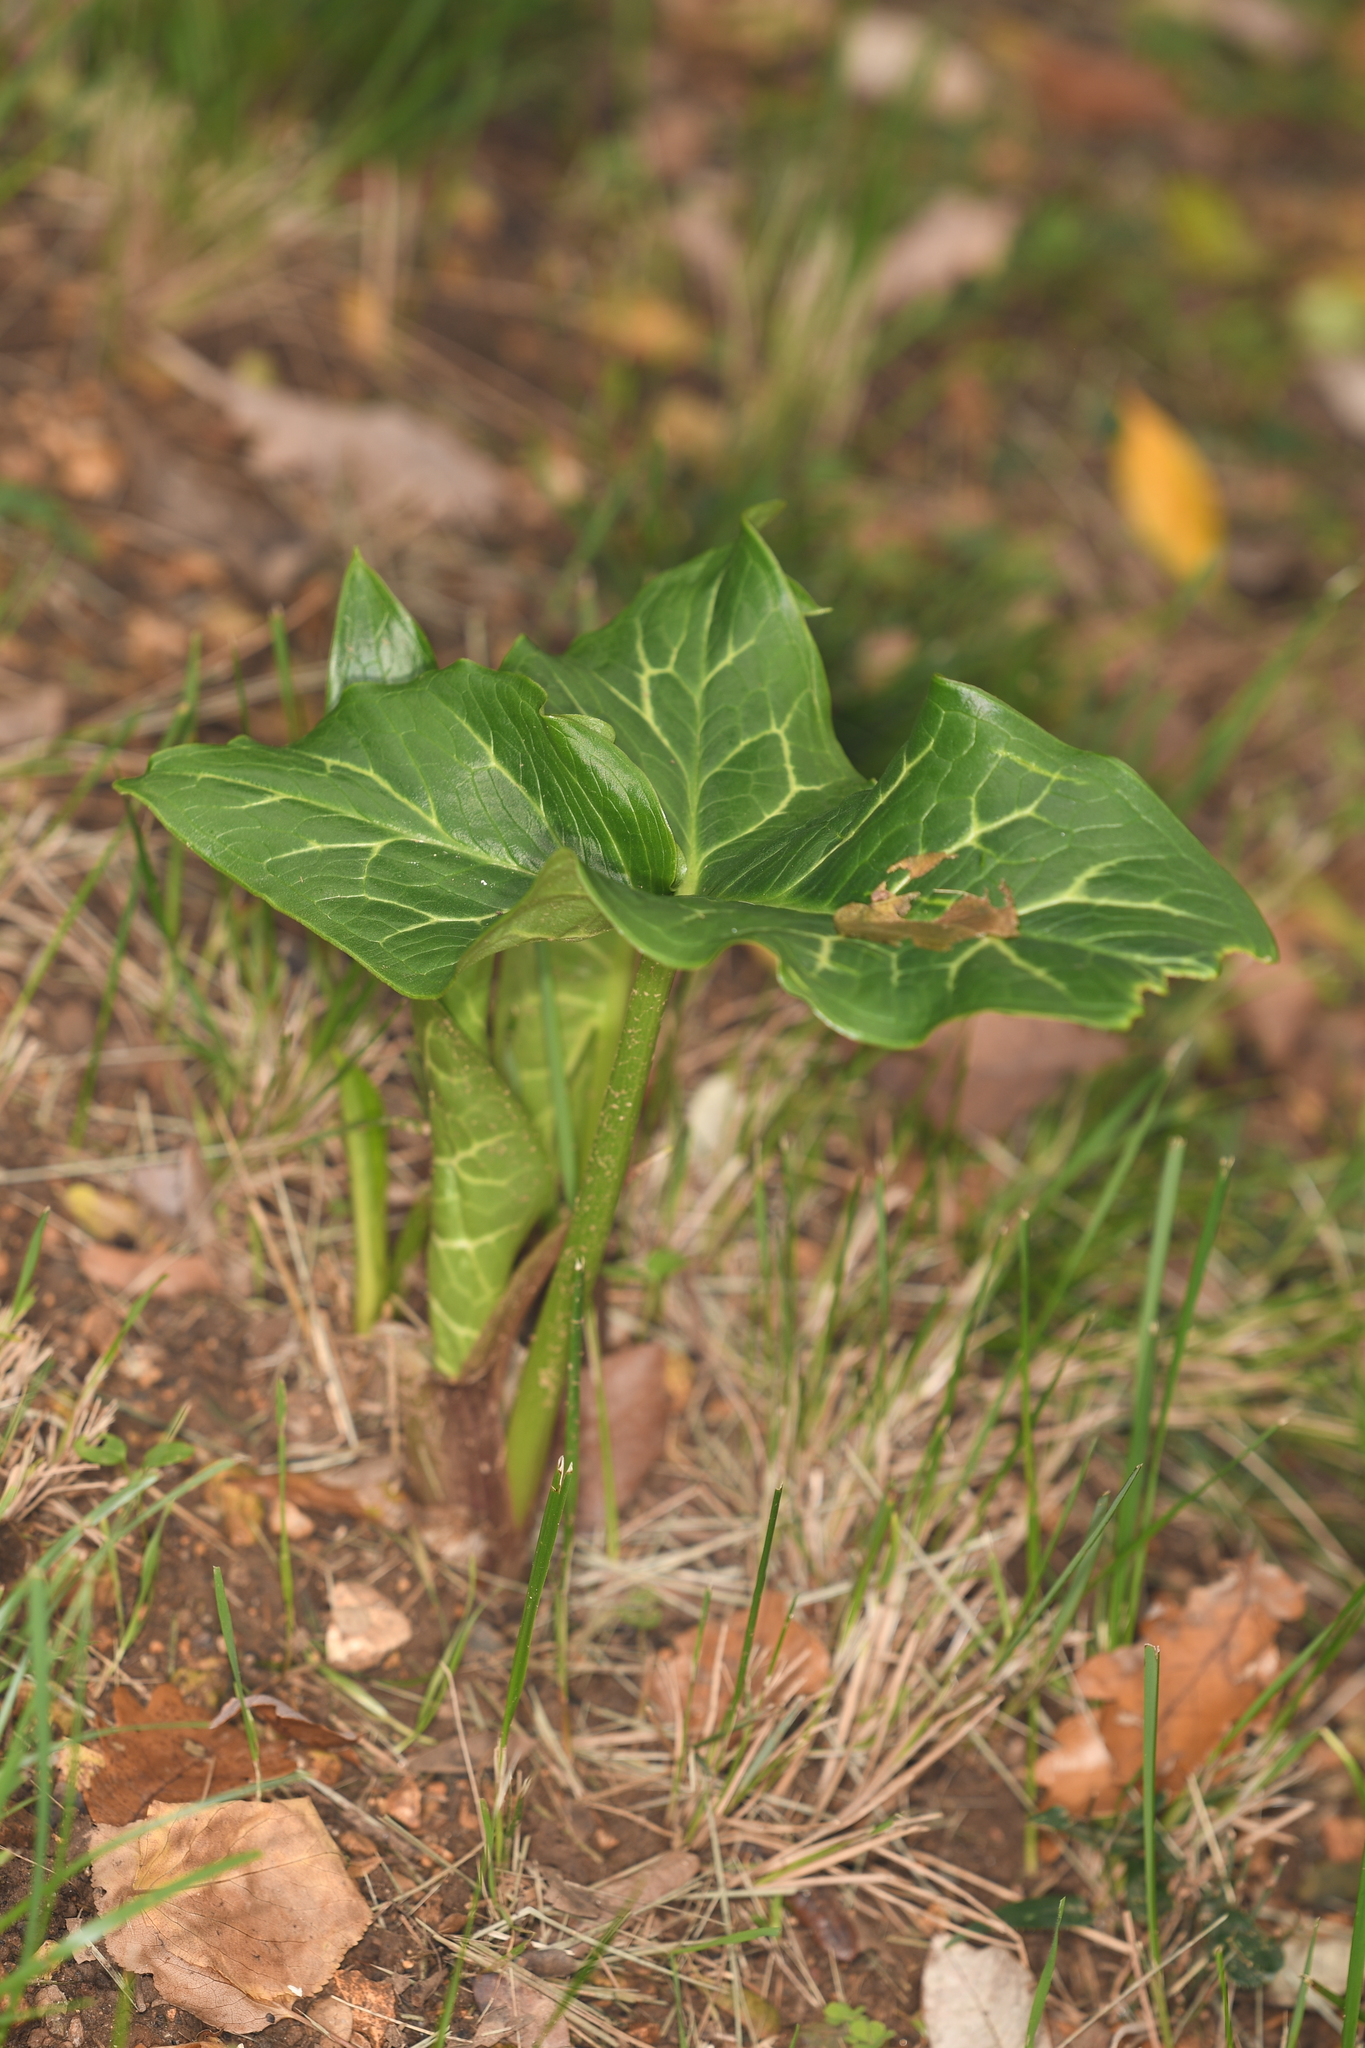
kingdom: Plantae
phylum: Tracheophyta
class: Liliopsida
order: Alismatales
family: Araceae
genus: Arum
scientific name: Arum italicum
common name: Italian lords-and-ladies
